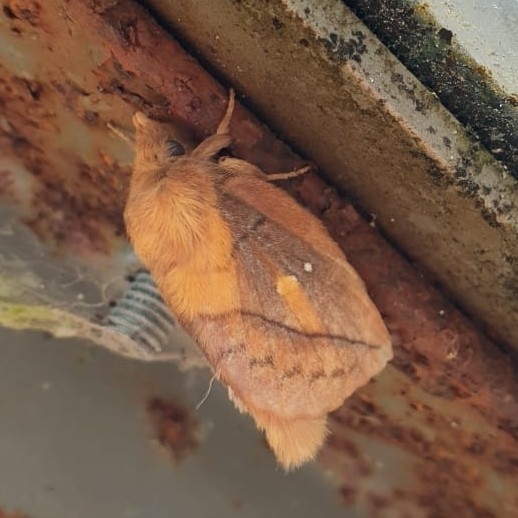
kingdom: Animalia
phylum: Arthropoda
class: Insecta
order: Lepidoptera
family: Lasiocampidae
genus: Euthrix
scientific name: Euthrix potatoria
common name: Drinker
